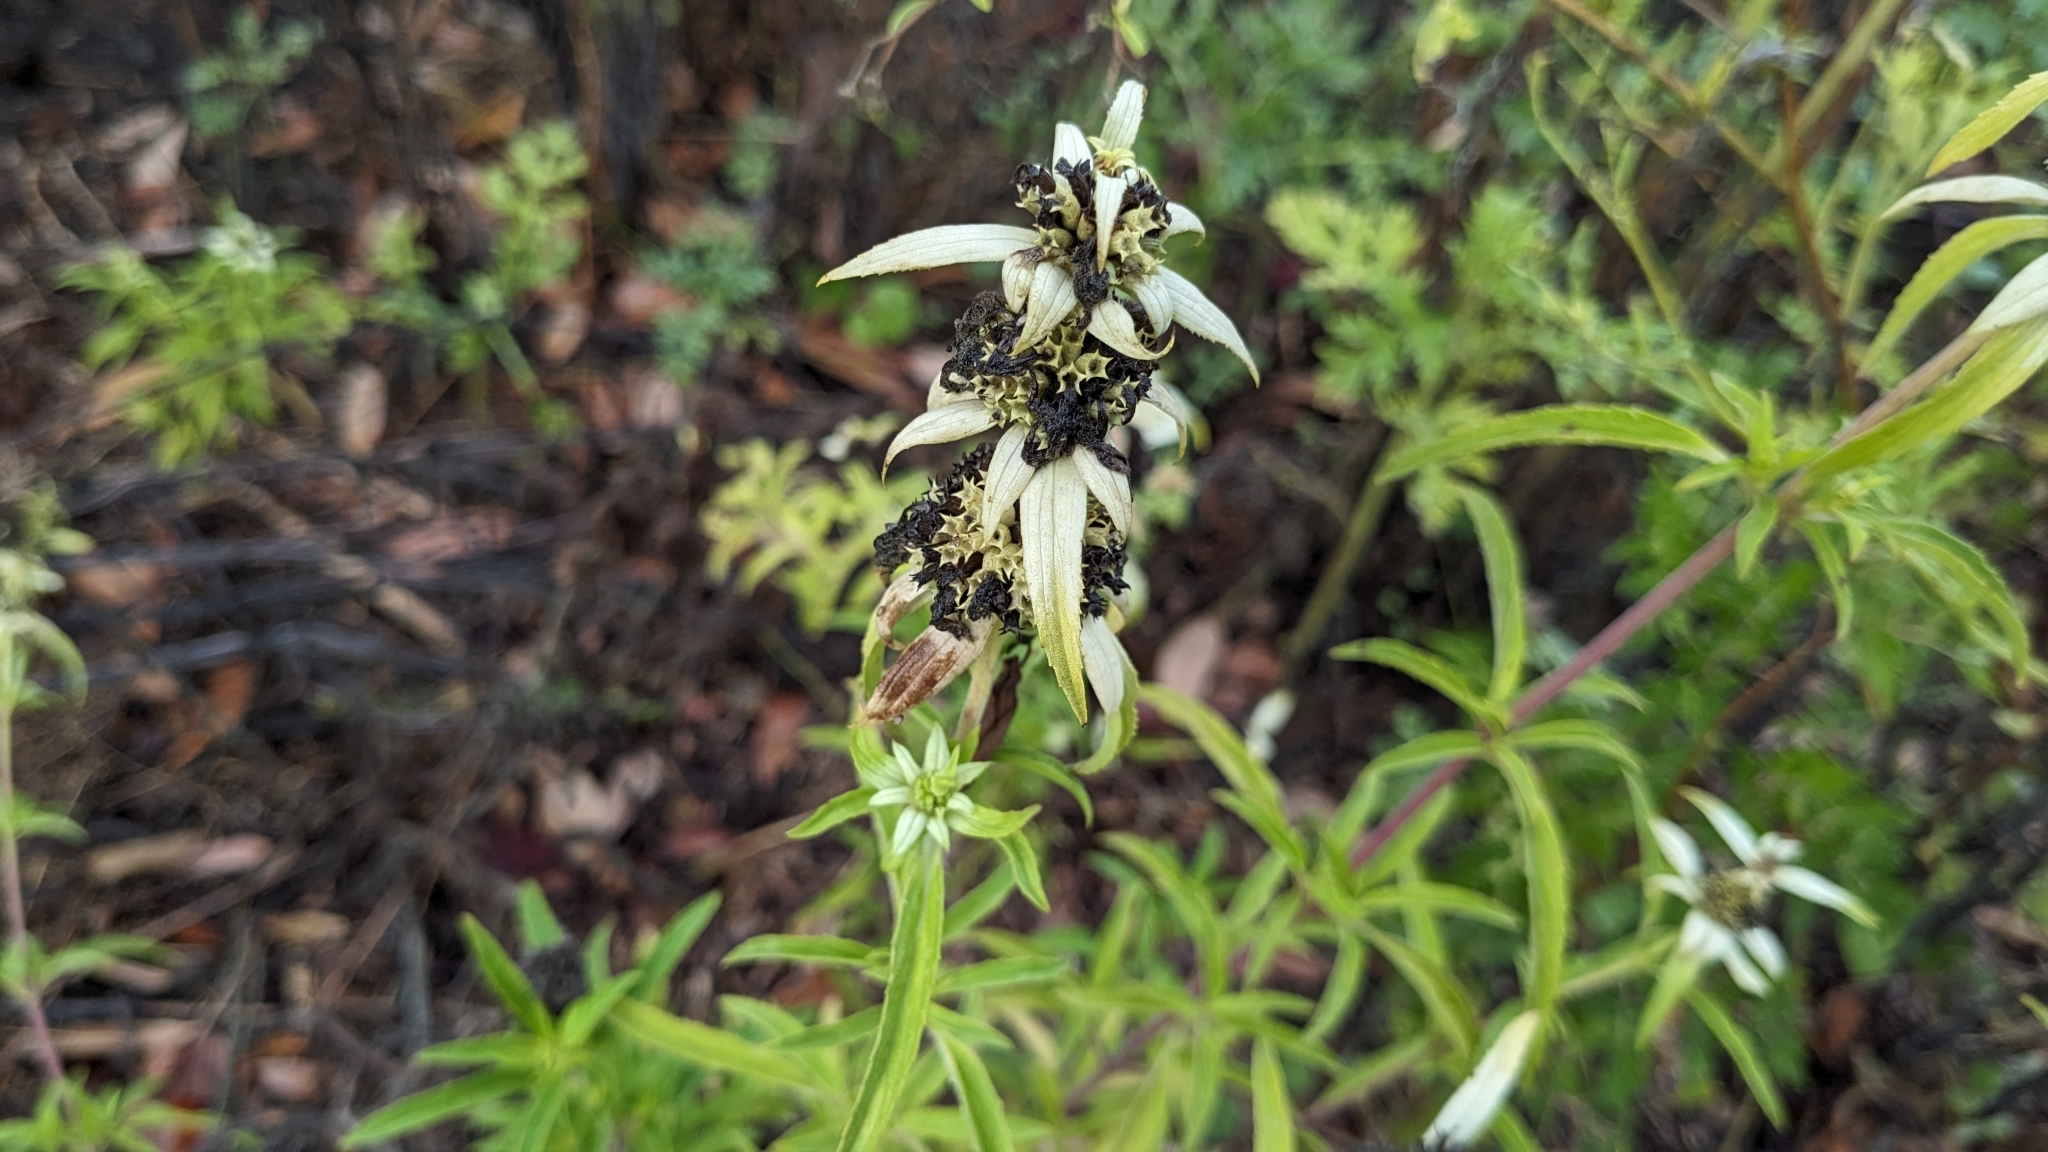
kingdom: Plantae
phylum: Tracheophyta
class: Magnoliopsida
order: Lamiales
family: Lamiaceae
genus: Monarda
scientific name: Monarda punctata
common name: Dotted monarda
